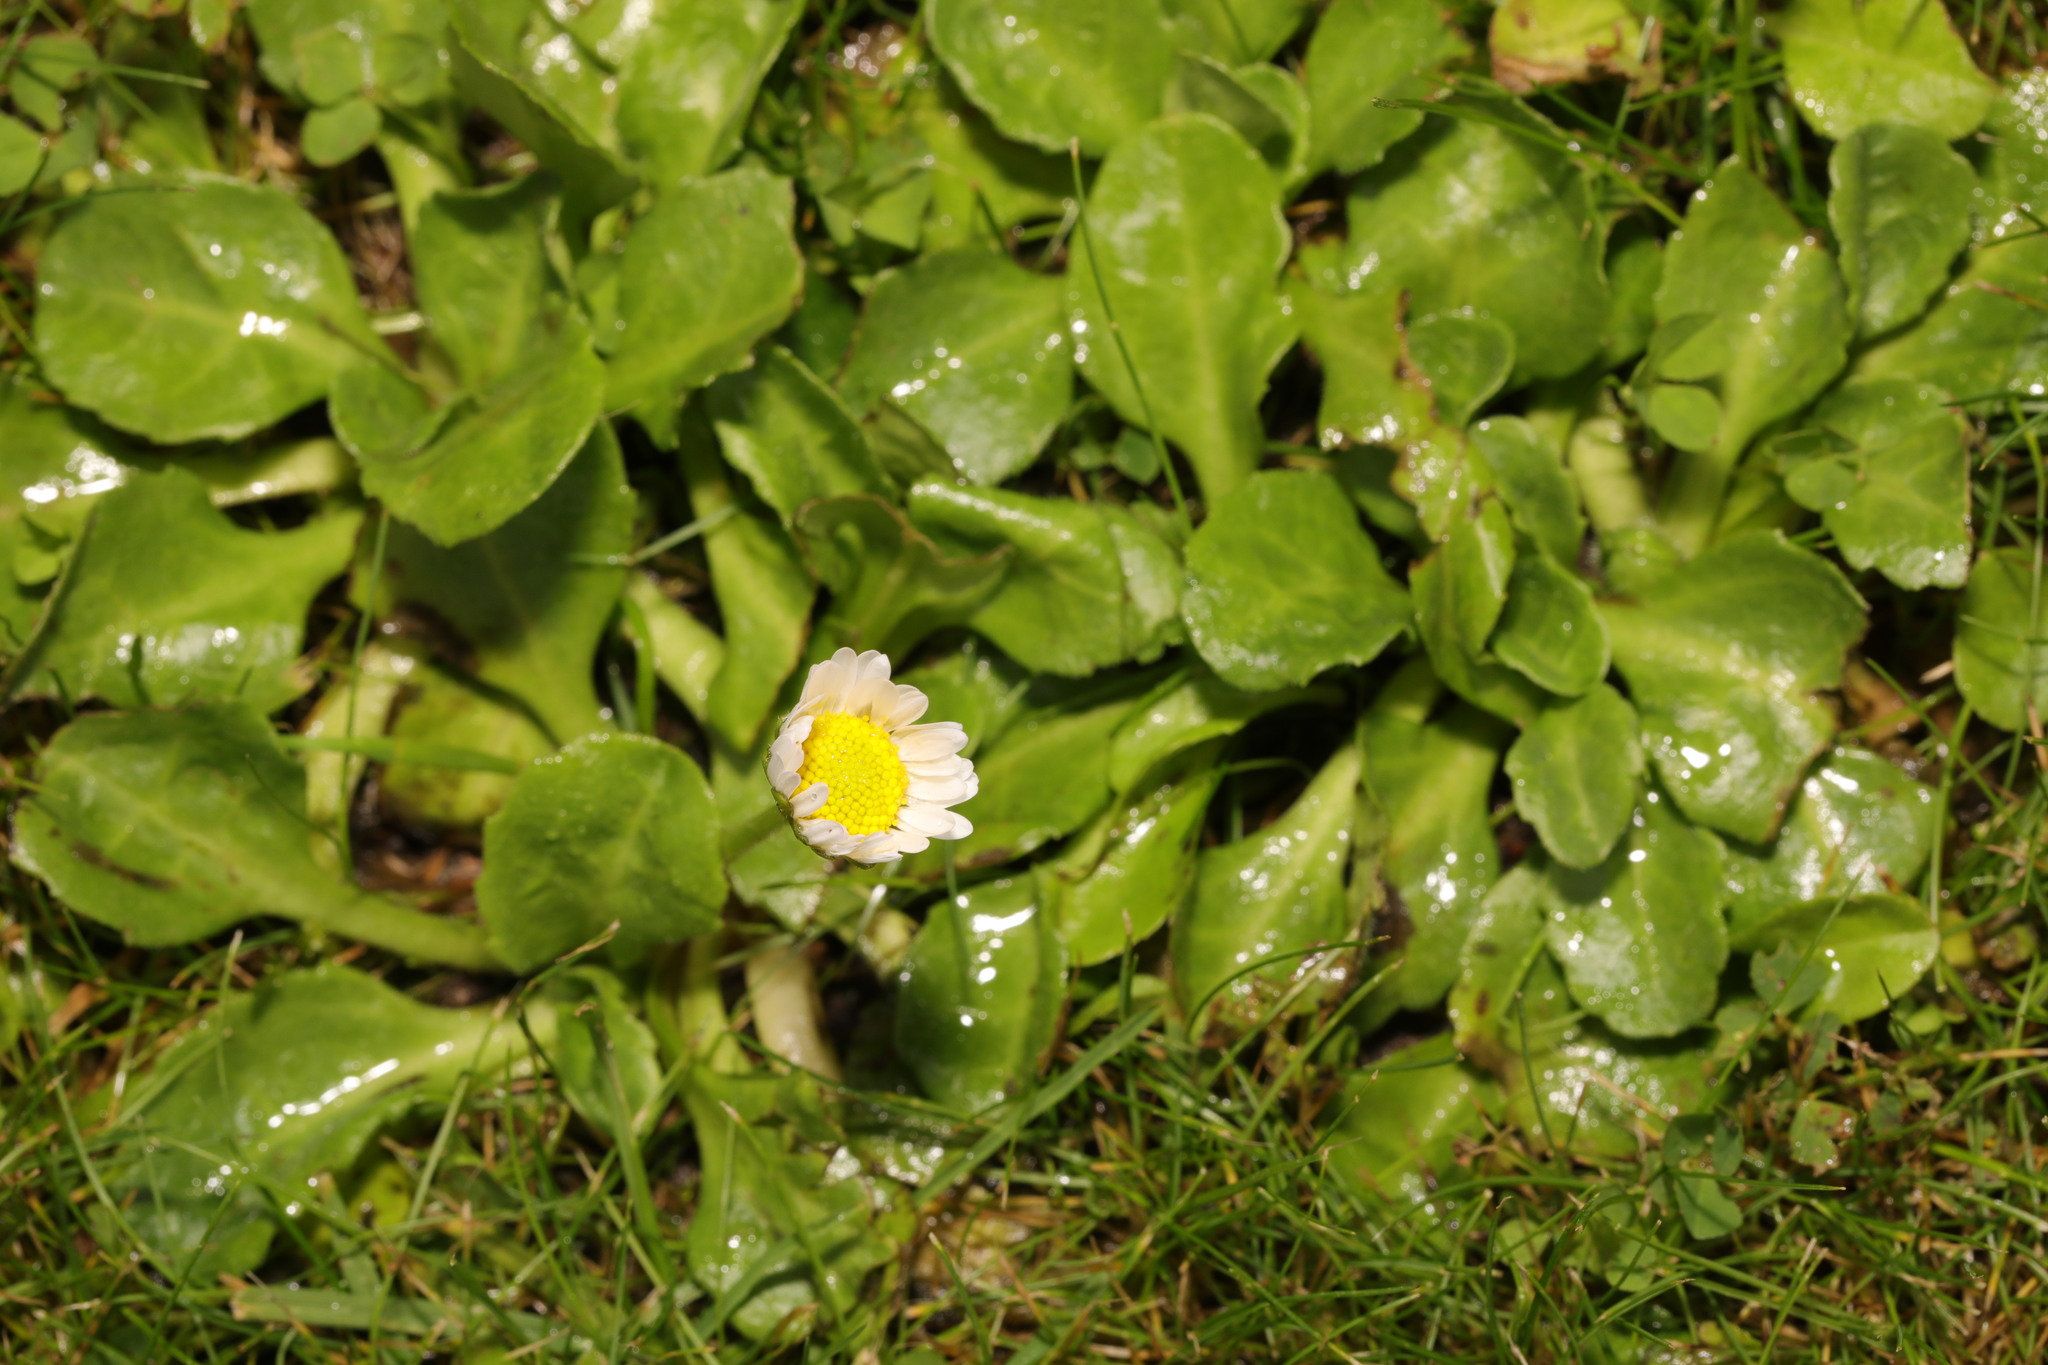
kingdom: Plantae
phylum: Tracheophyta
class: Magnoliopsida
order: Asterales
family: Asteraceae
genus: Bellis
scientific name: Bellis perennis
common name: Lawndaisy
